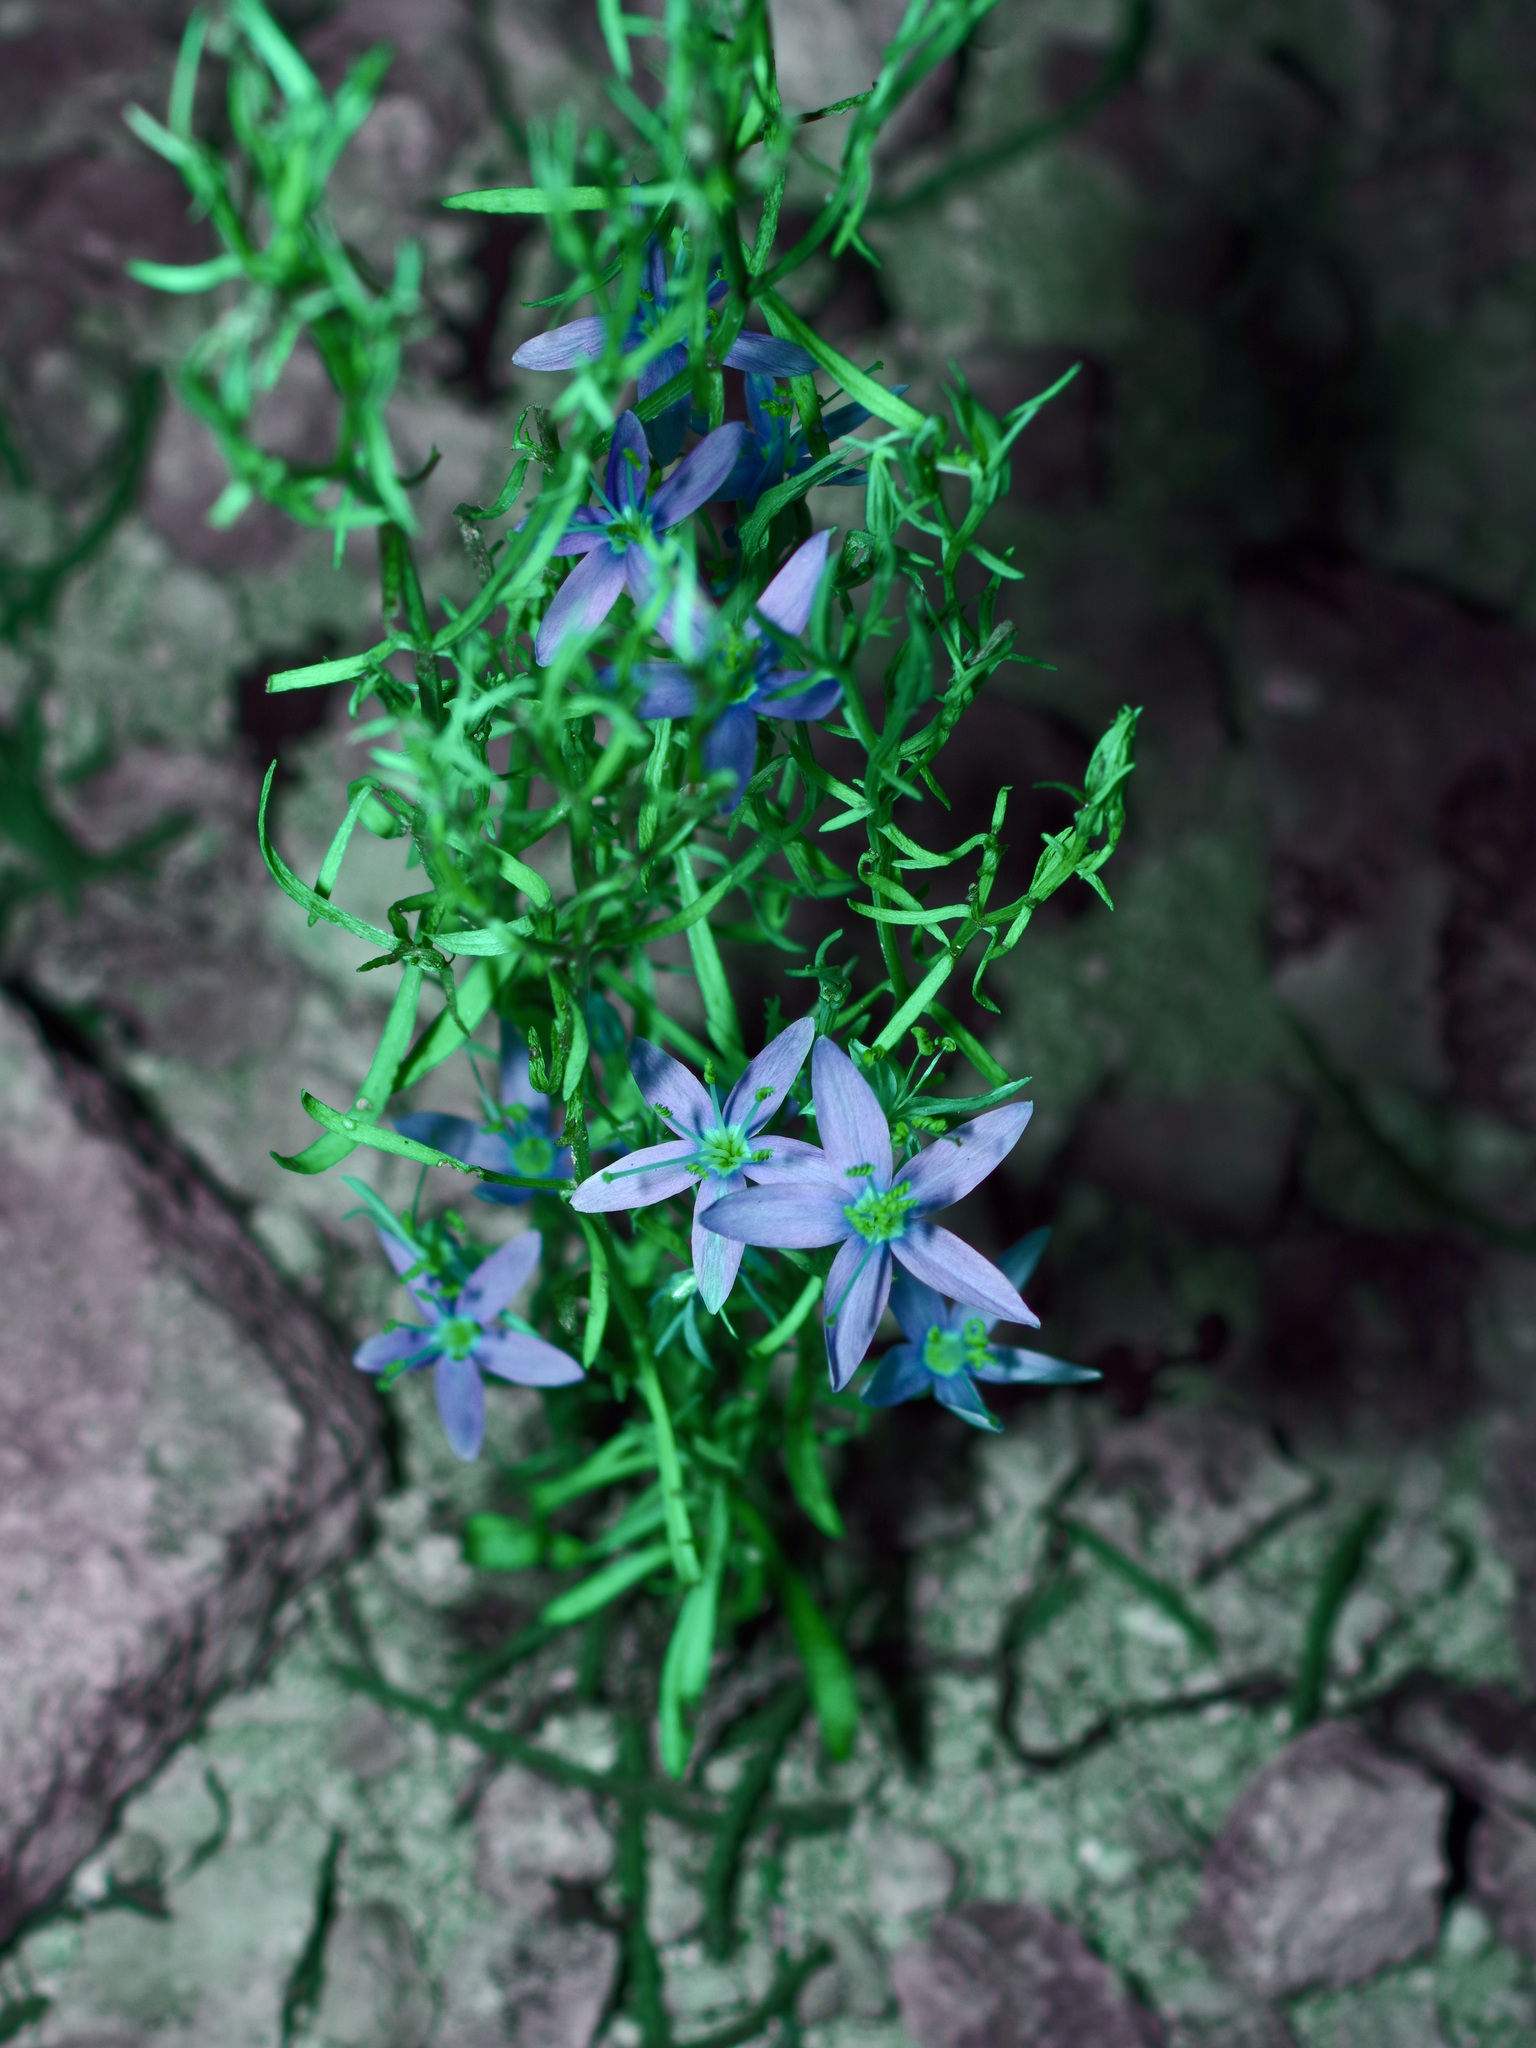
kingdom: Plantae
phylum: Tracheophyta
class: Magnoliopsida
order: Gentianales
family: Gentianaceae
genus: Zeltnera
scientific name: Zeltnera beyrichii
